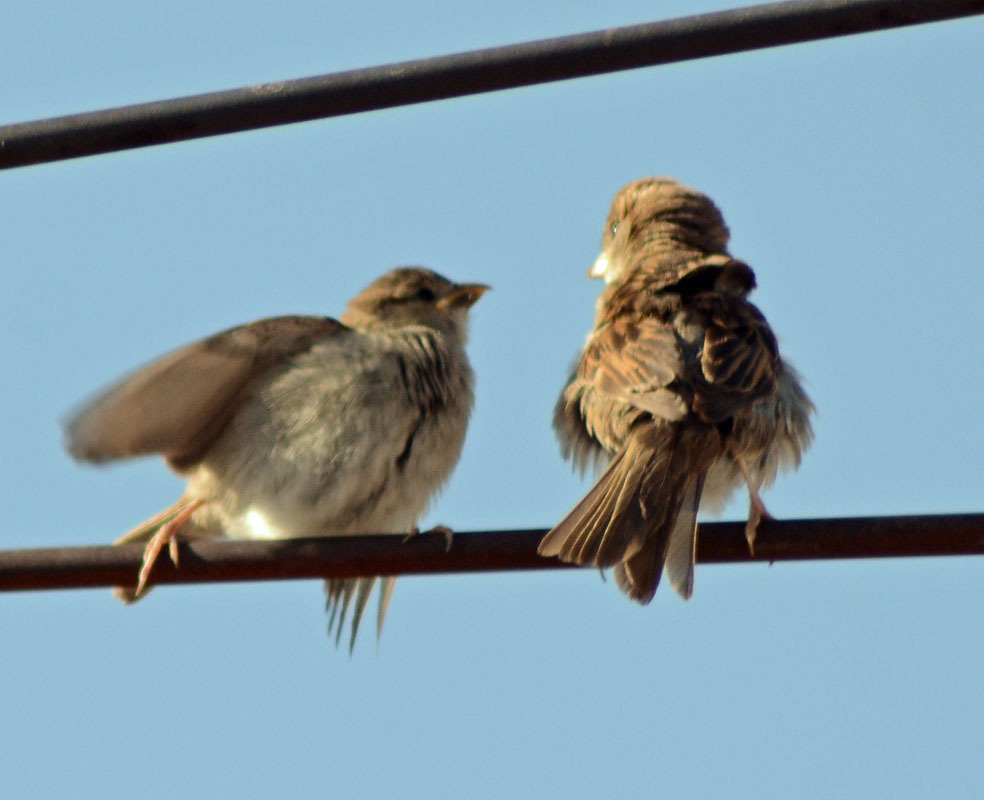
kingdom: Animalia
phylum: Chordata
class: Aves
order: Passeriformes
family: Passeridae
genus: Passer
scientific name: Passer domesticus
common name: House sparrow
